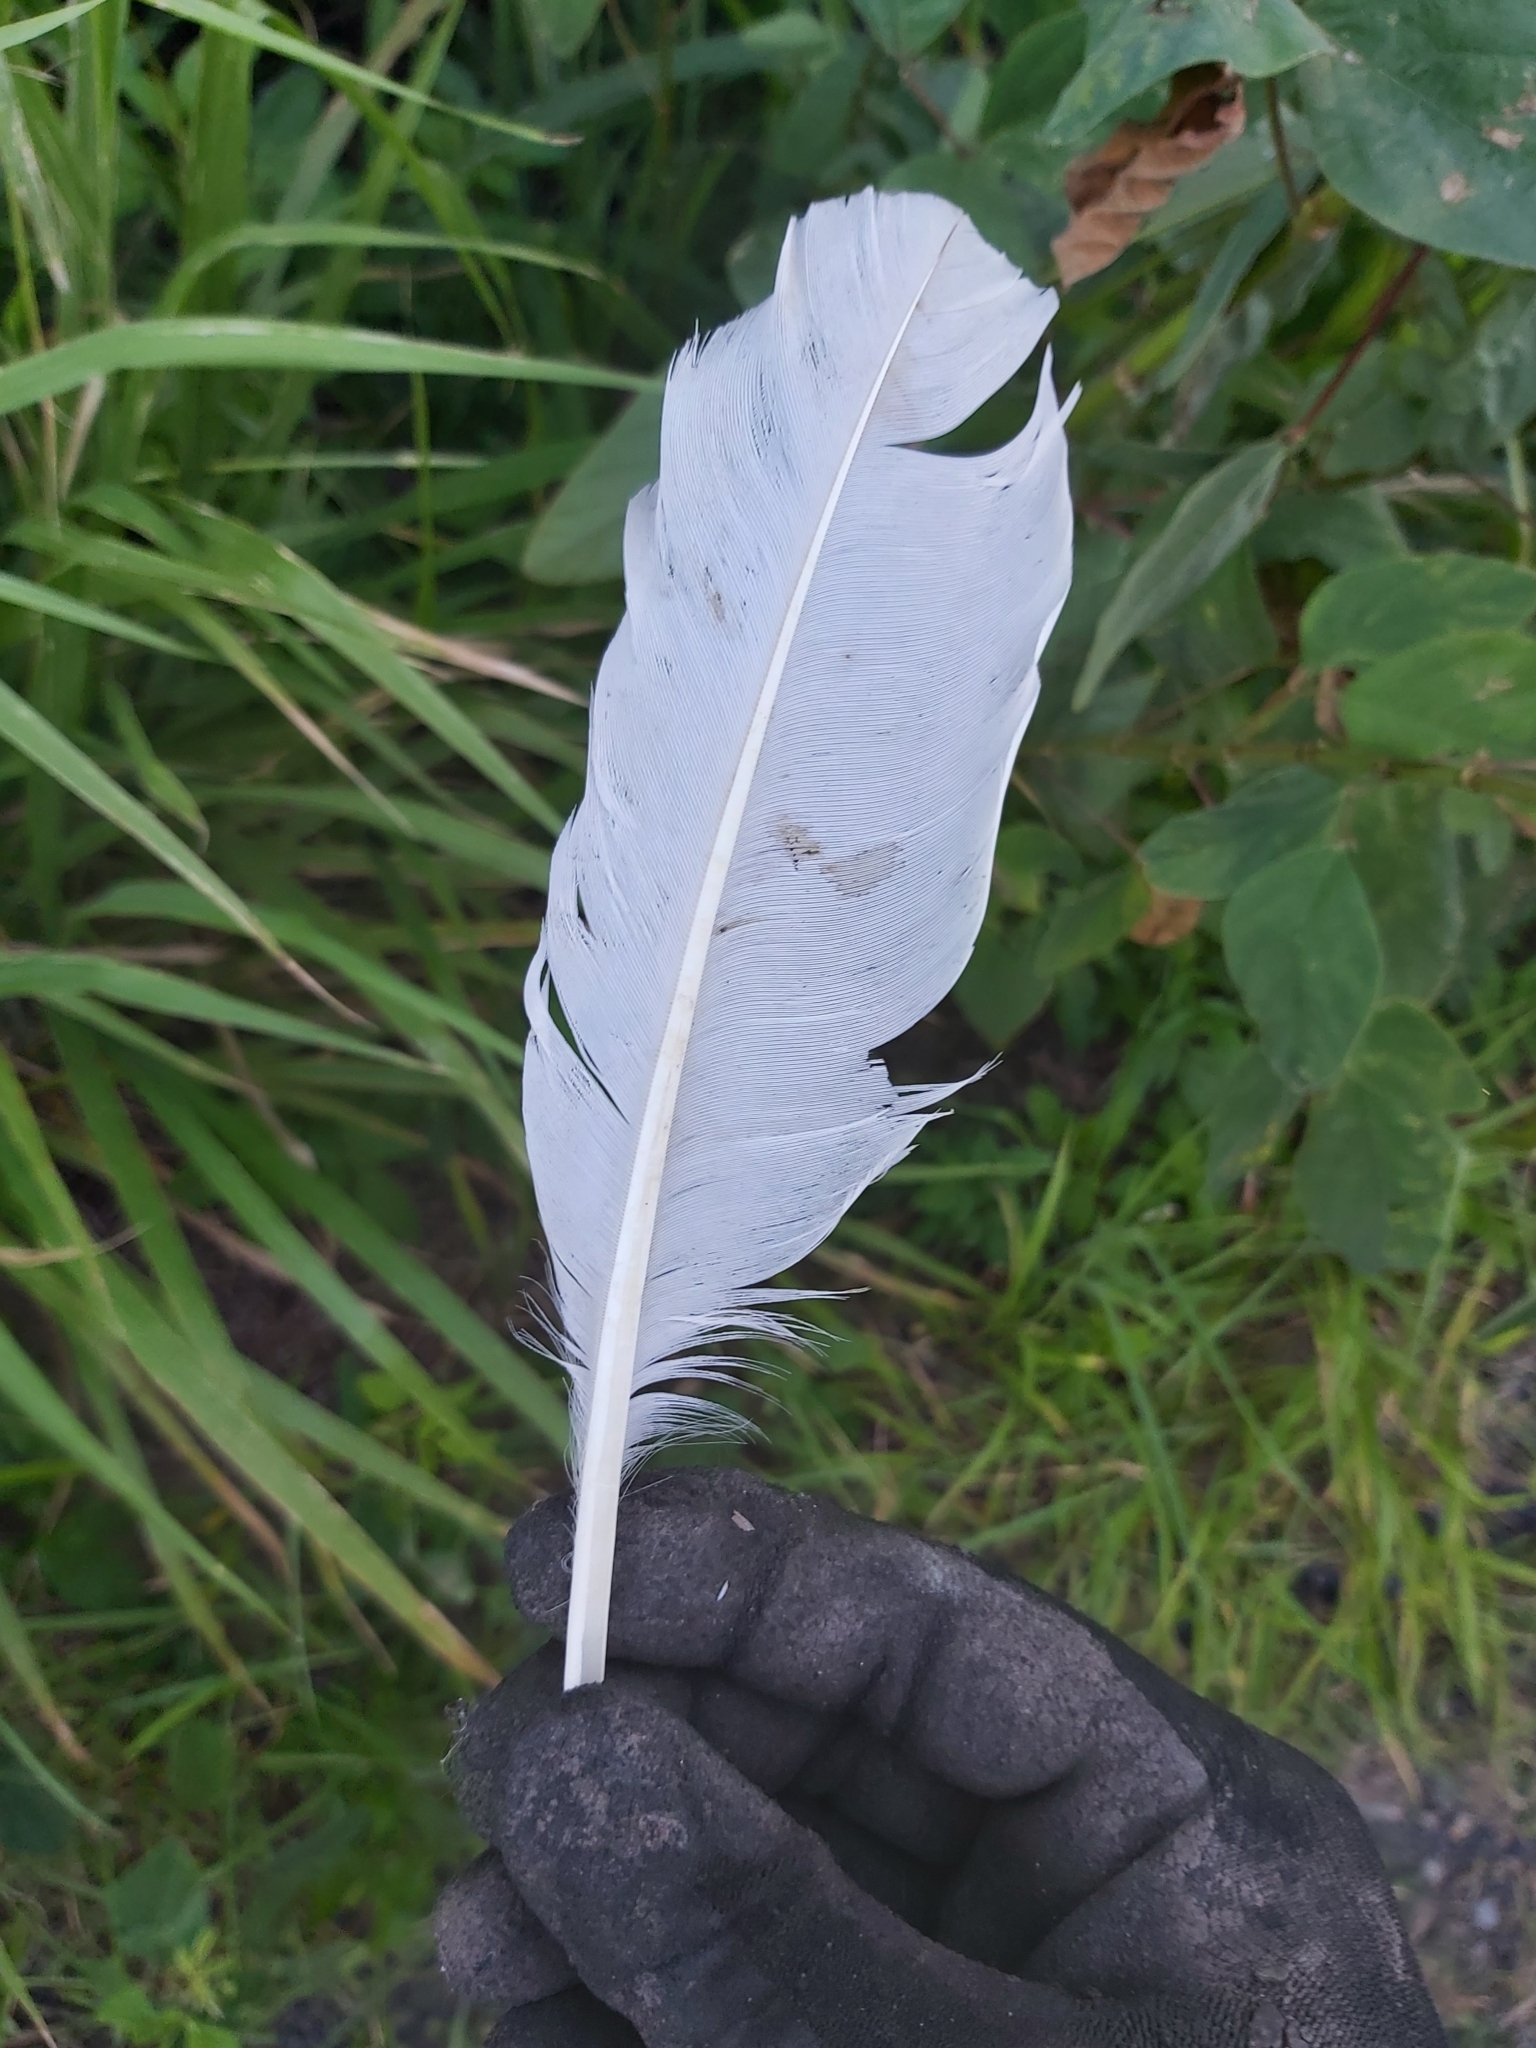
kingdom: Animalia
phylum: Chordata
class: Aves
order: Pelecaniformes
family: Threskiornithidae
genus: Threskiornis
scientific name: Threskiornis molucca
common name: Australian white ibis
